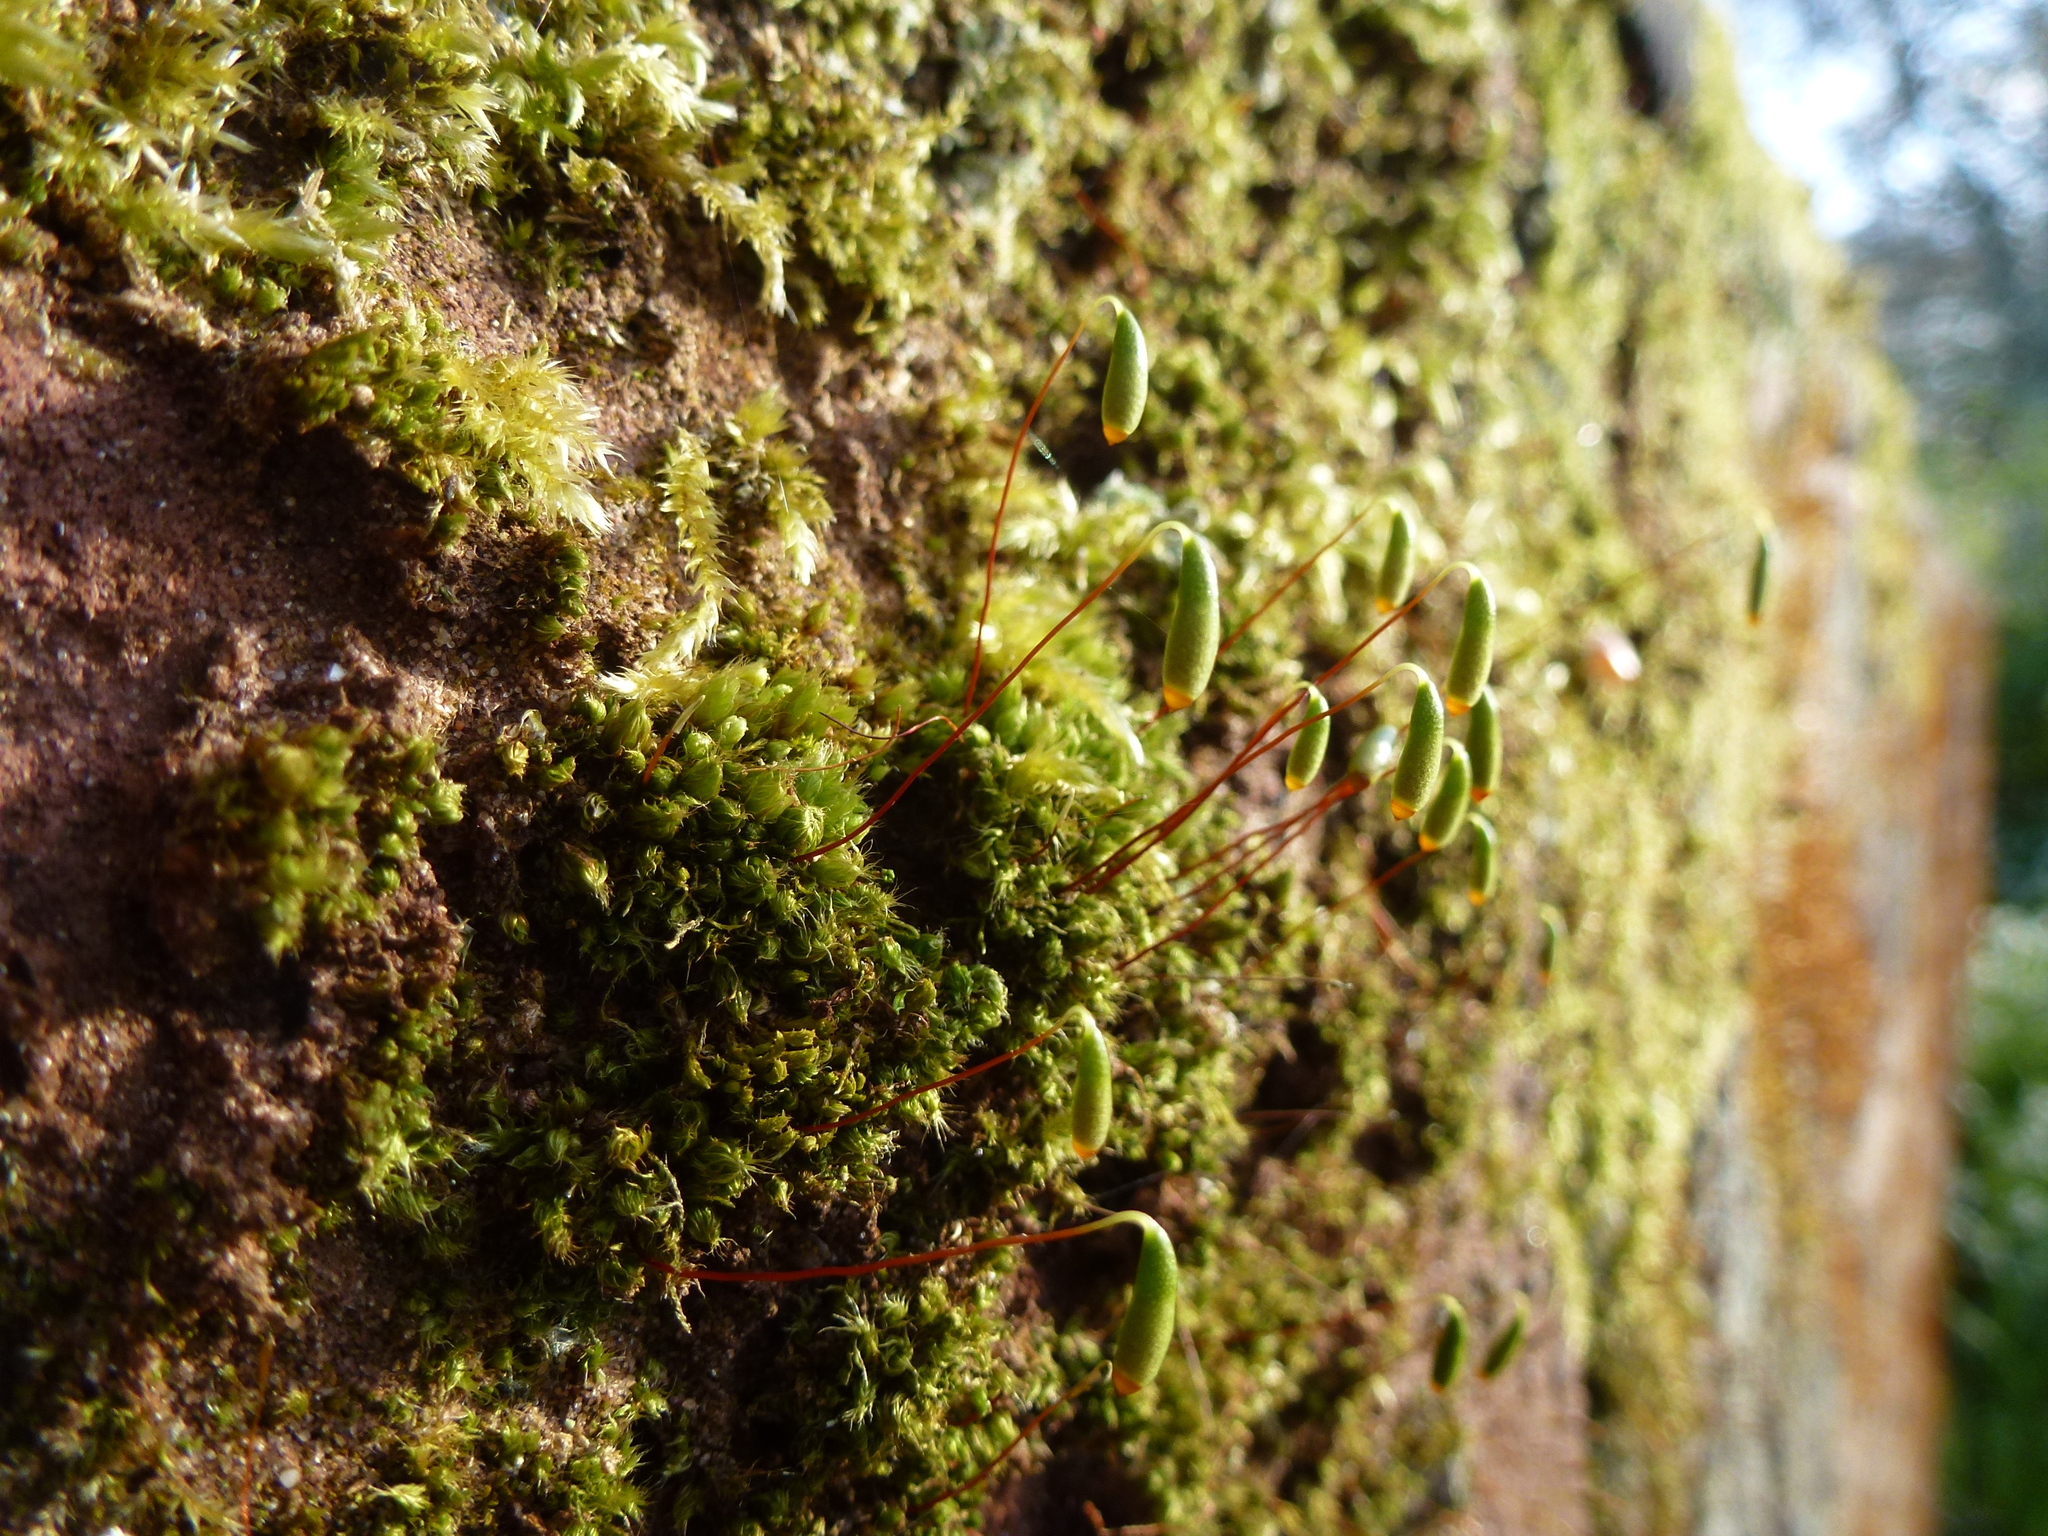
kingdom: Plantae
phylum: Bryophyta
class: Bryopsida
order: Bryales
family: Bryaceae
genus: Rosulabryum
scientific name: Rosulabryum capillare
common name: Capillary thread-moss
